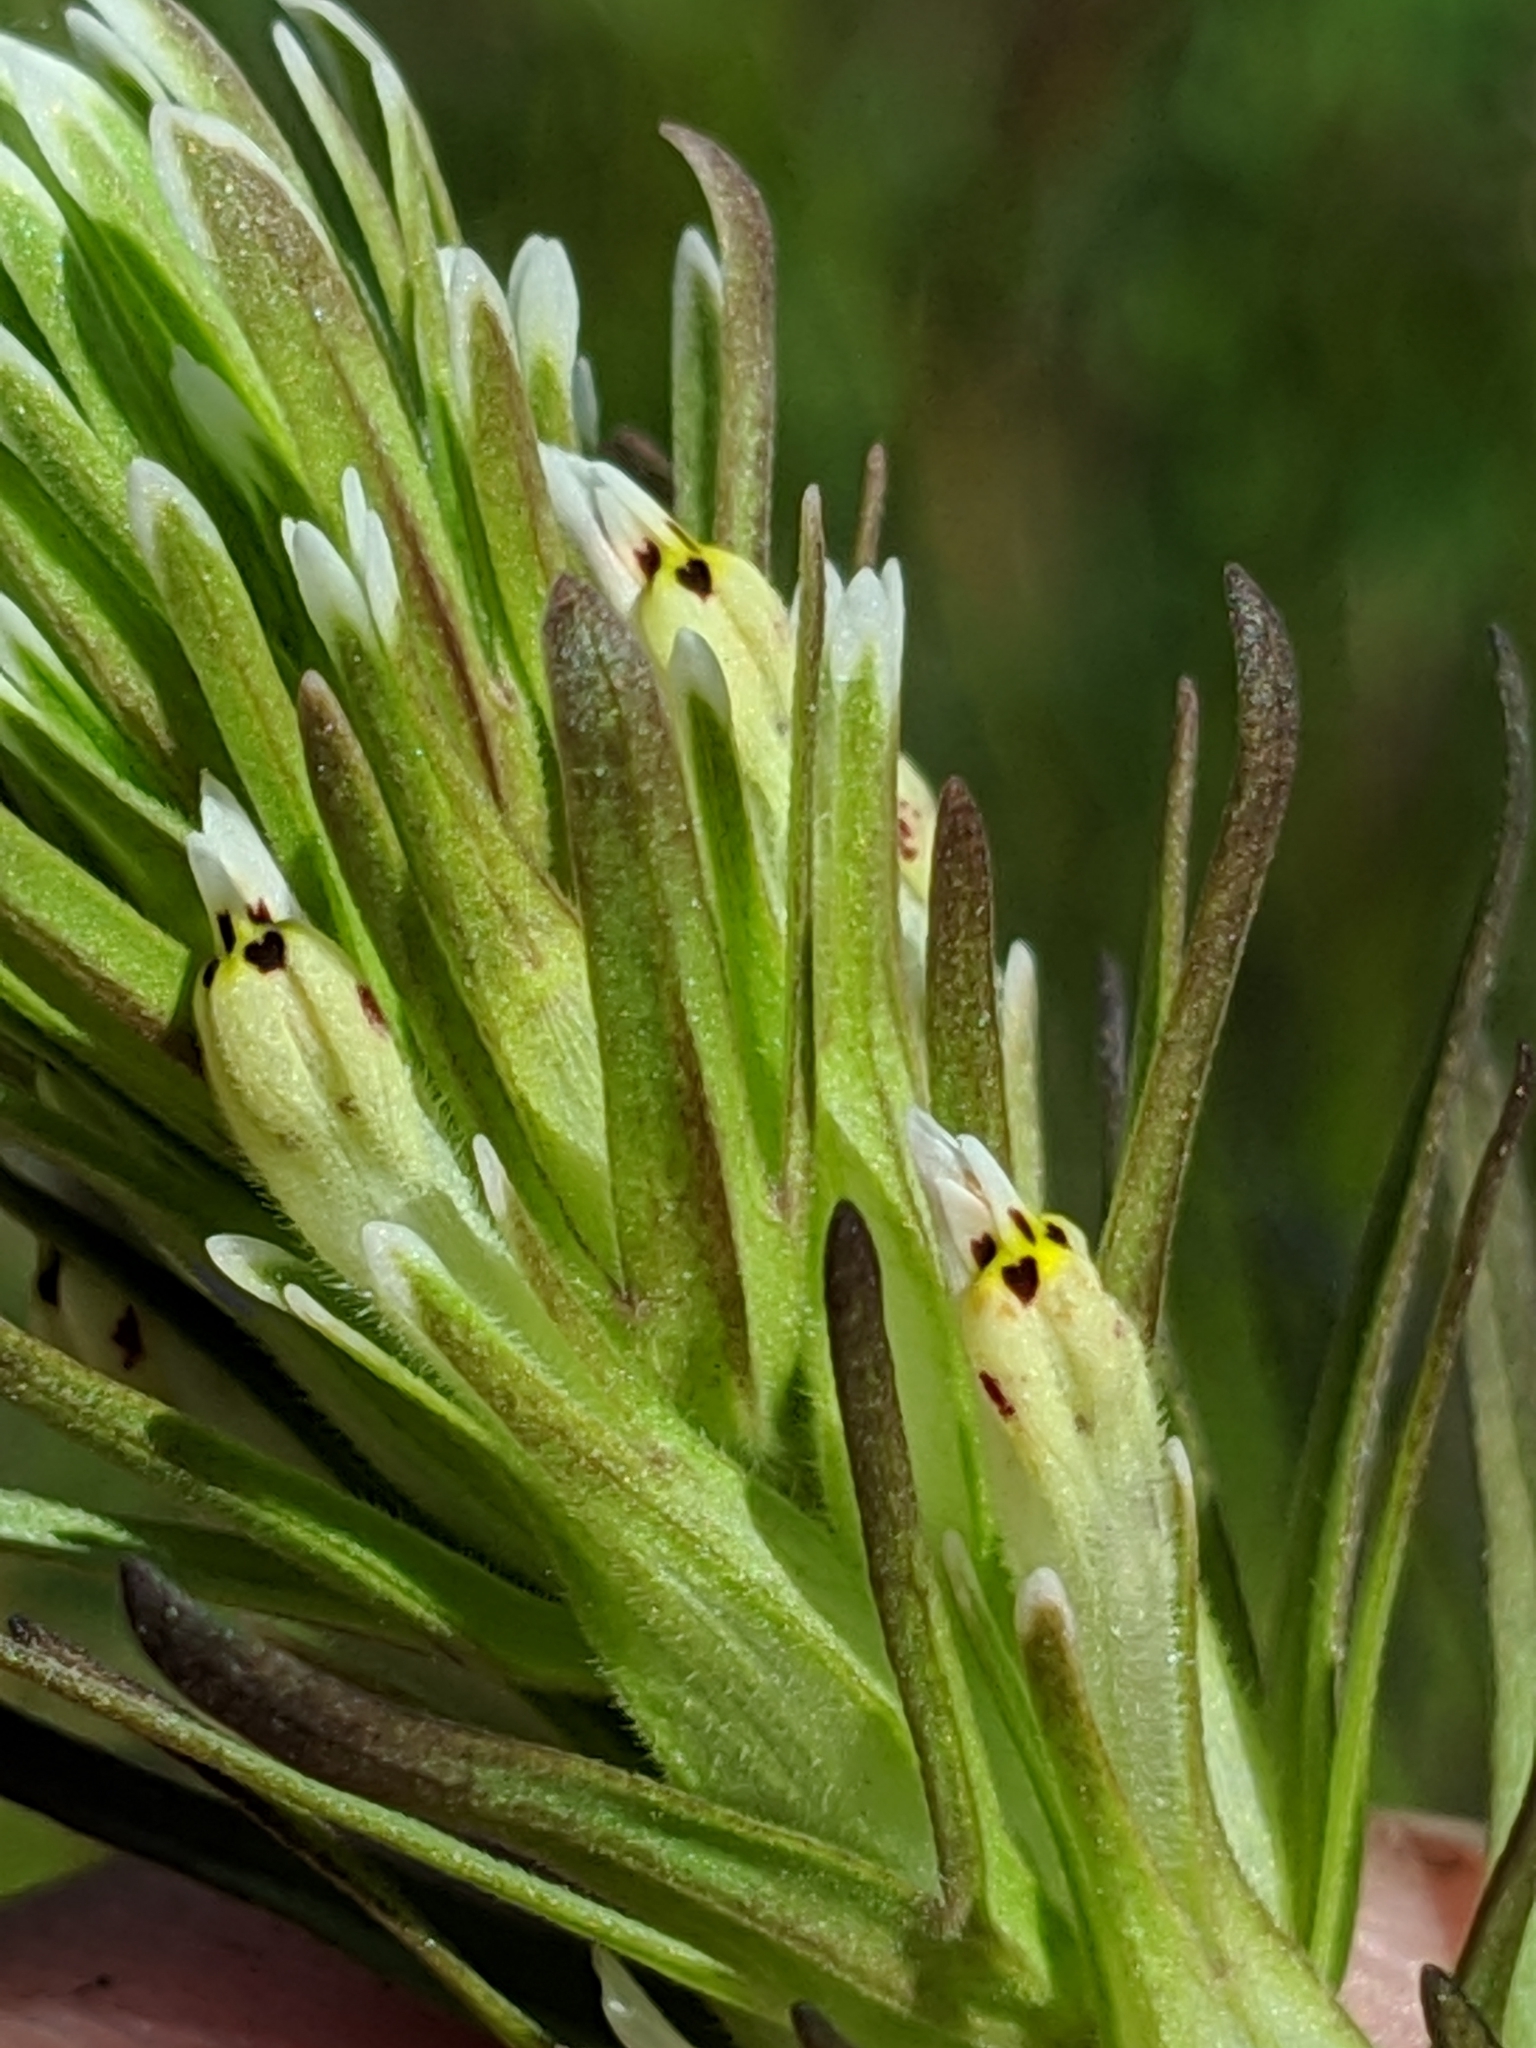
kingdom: Plantae
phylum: Tracheophyta
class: Magnoliopsida
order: Lamiales
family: Orobanchaceae
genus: Castilleja
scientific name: Castilleja attenuata
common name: Valley tassels
